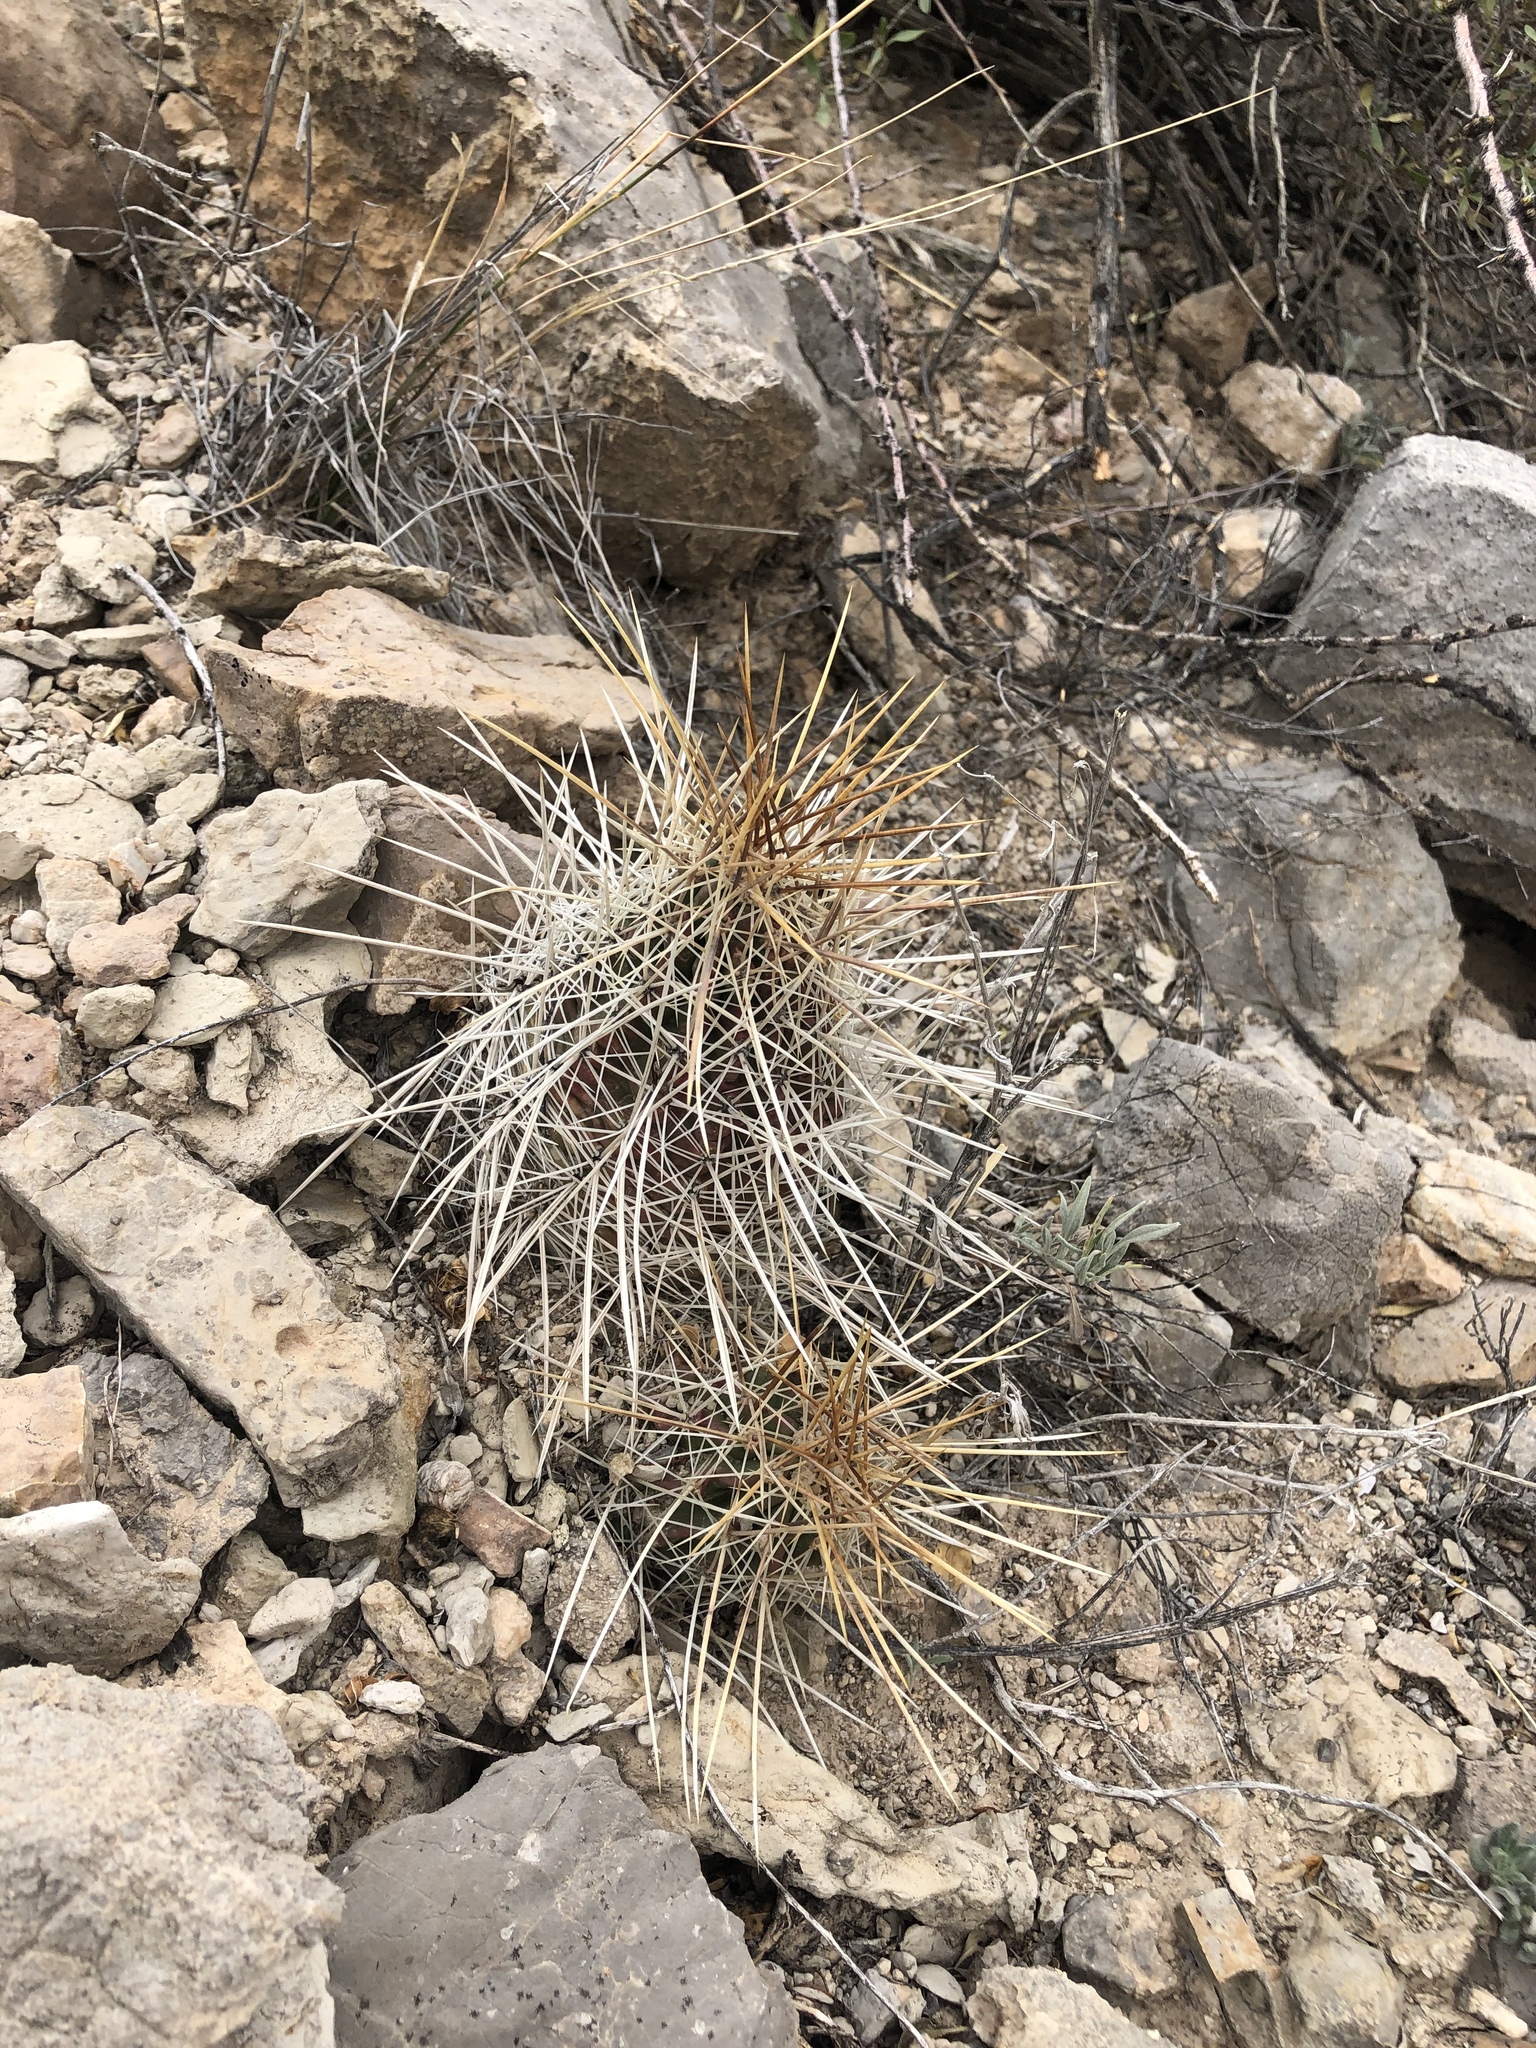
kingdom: Plantae
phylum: Tracheophyta
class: Magnoliopsida
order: Caryophyllales
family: Cactaceae
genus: Echinocereus
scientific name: Echinocereus stramineus
